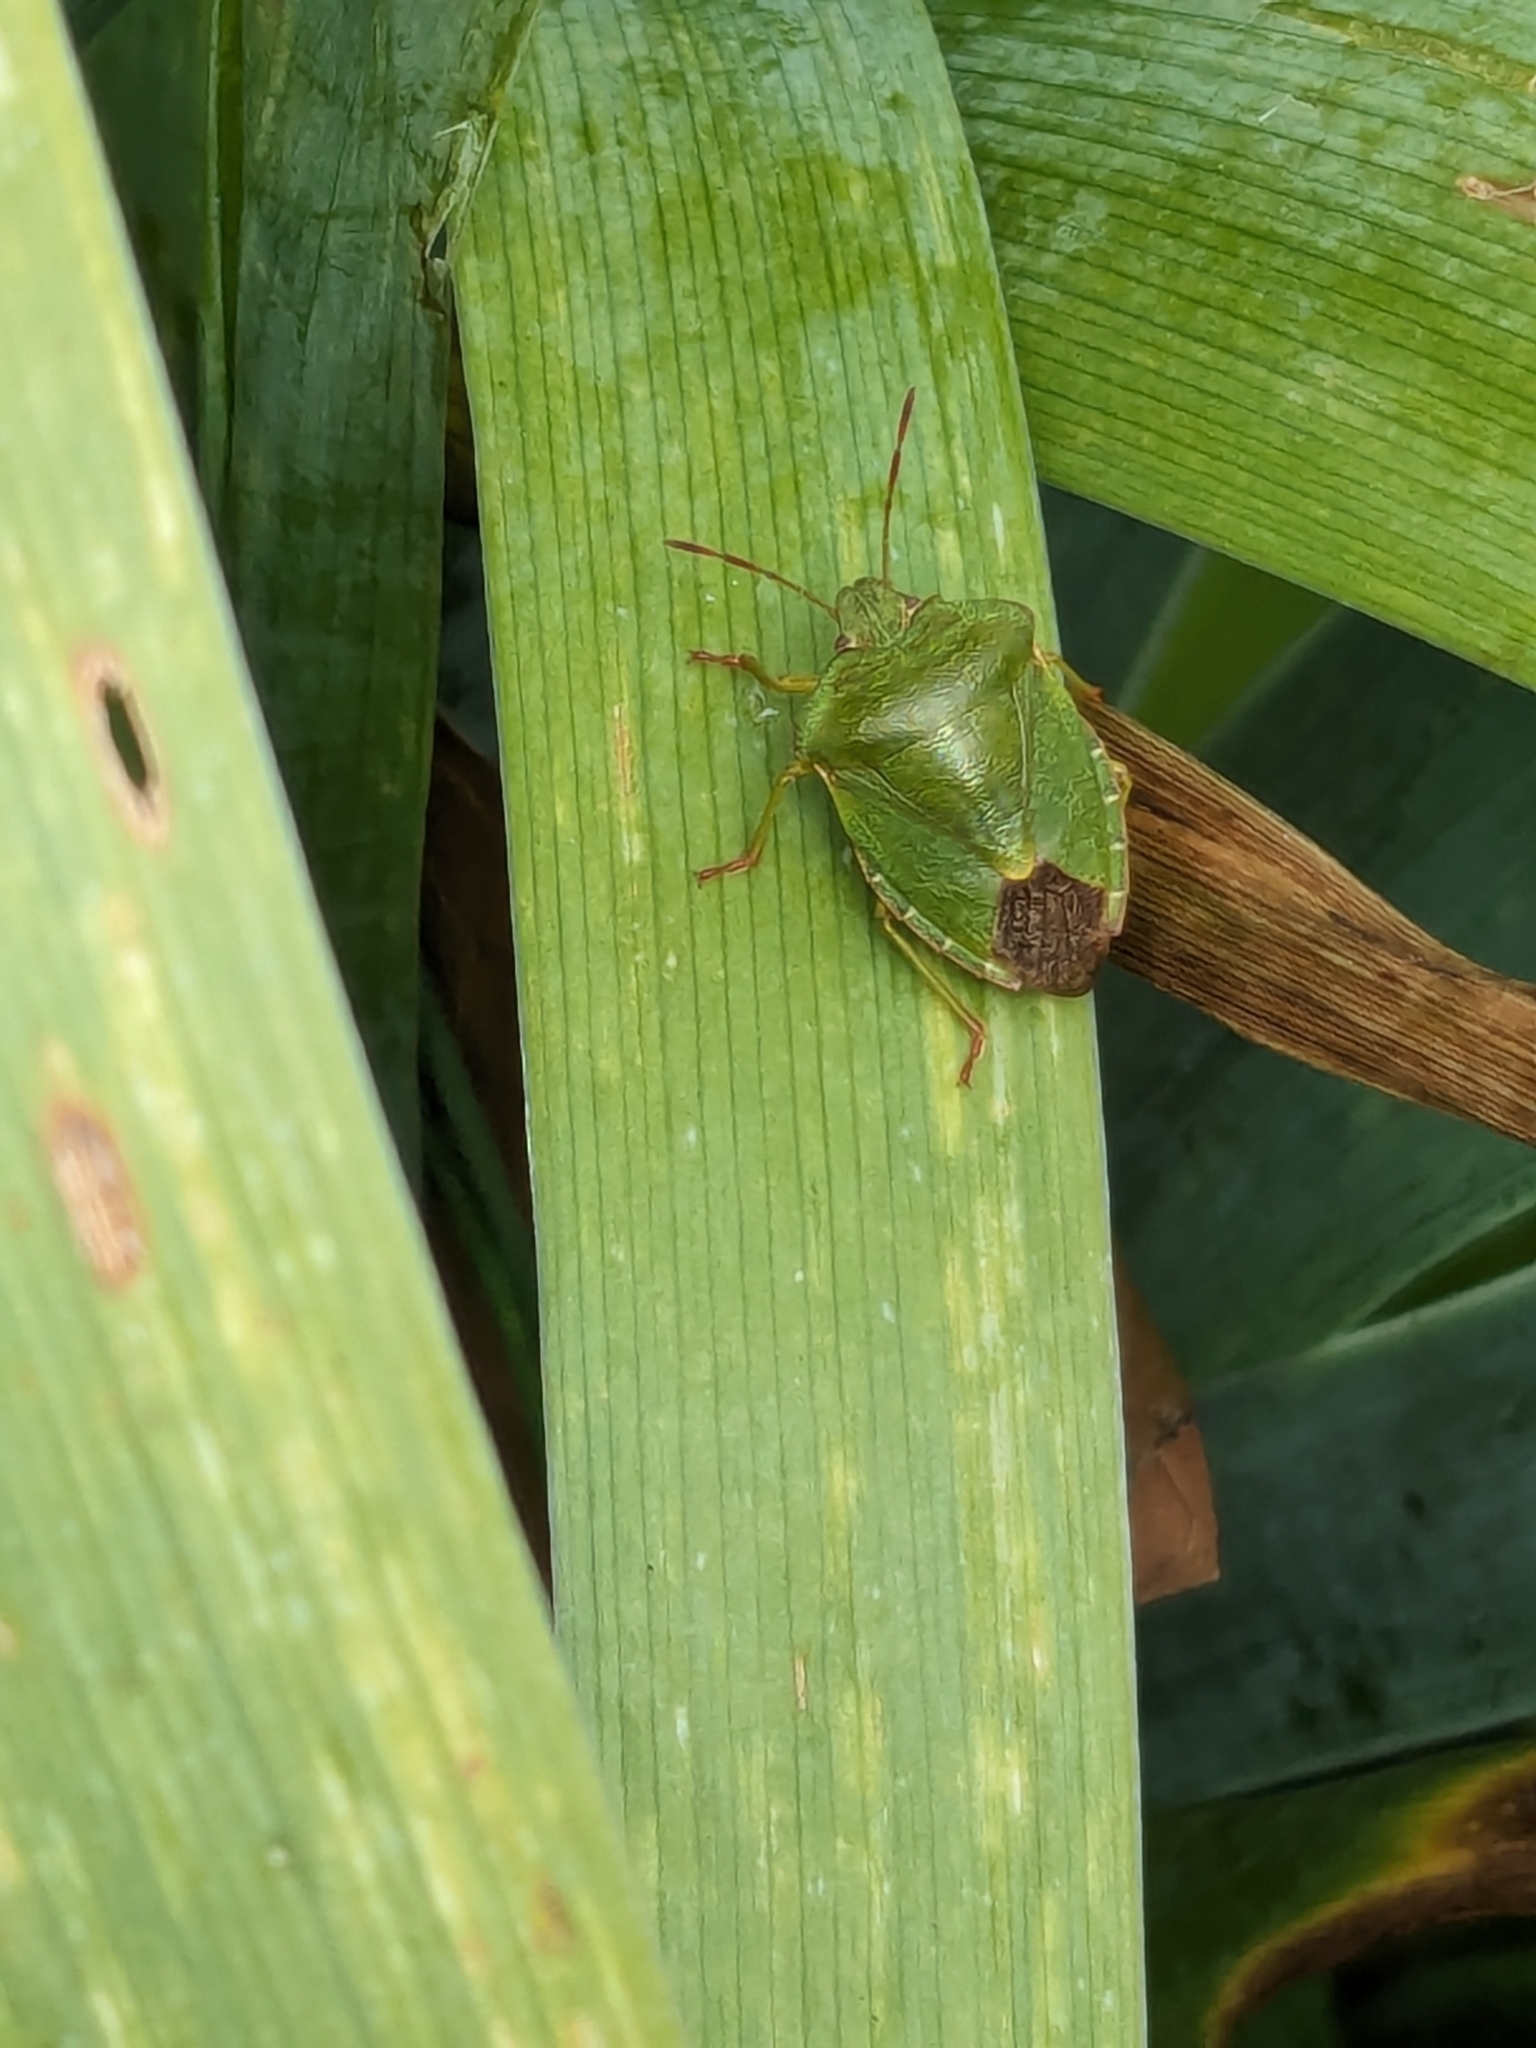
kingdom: Animalia
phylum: Arthropoda
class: Insecta
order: Hemiptera
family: Pentatomidae
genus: Palomena
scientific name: Palomena prasina
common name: Green shieldbug
